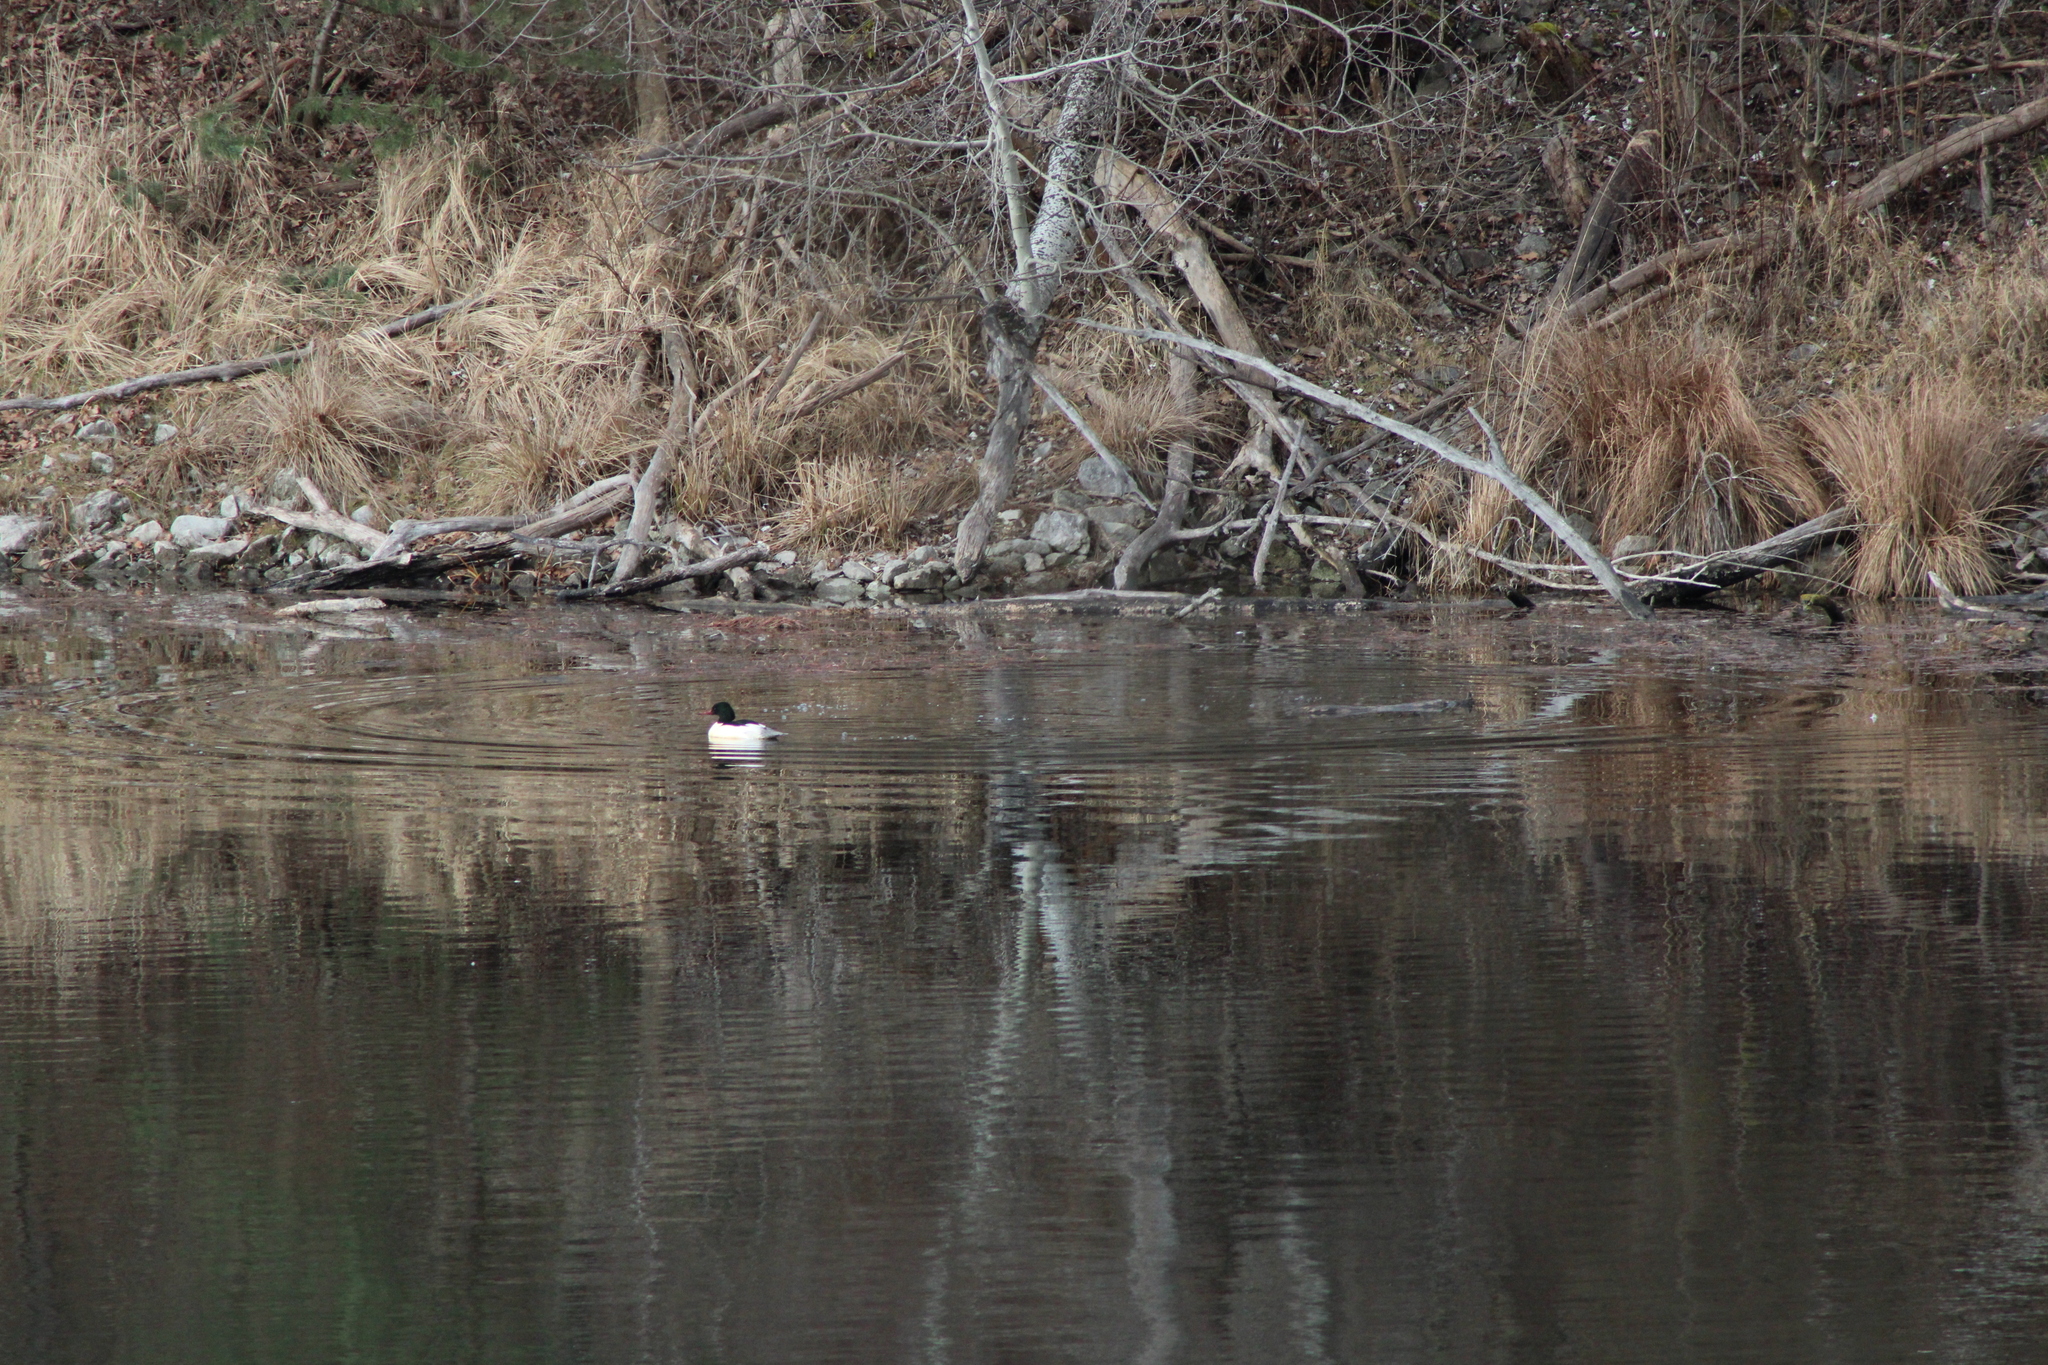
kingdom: Animalia
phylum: Chordata
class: Aves
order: Anseriformes
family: Anatidae
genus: Mergus
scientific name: Mergus merganser
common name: Common merganser
